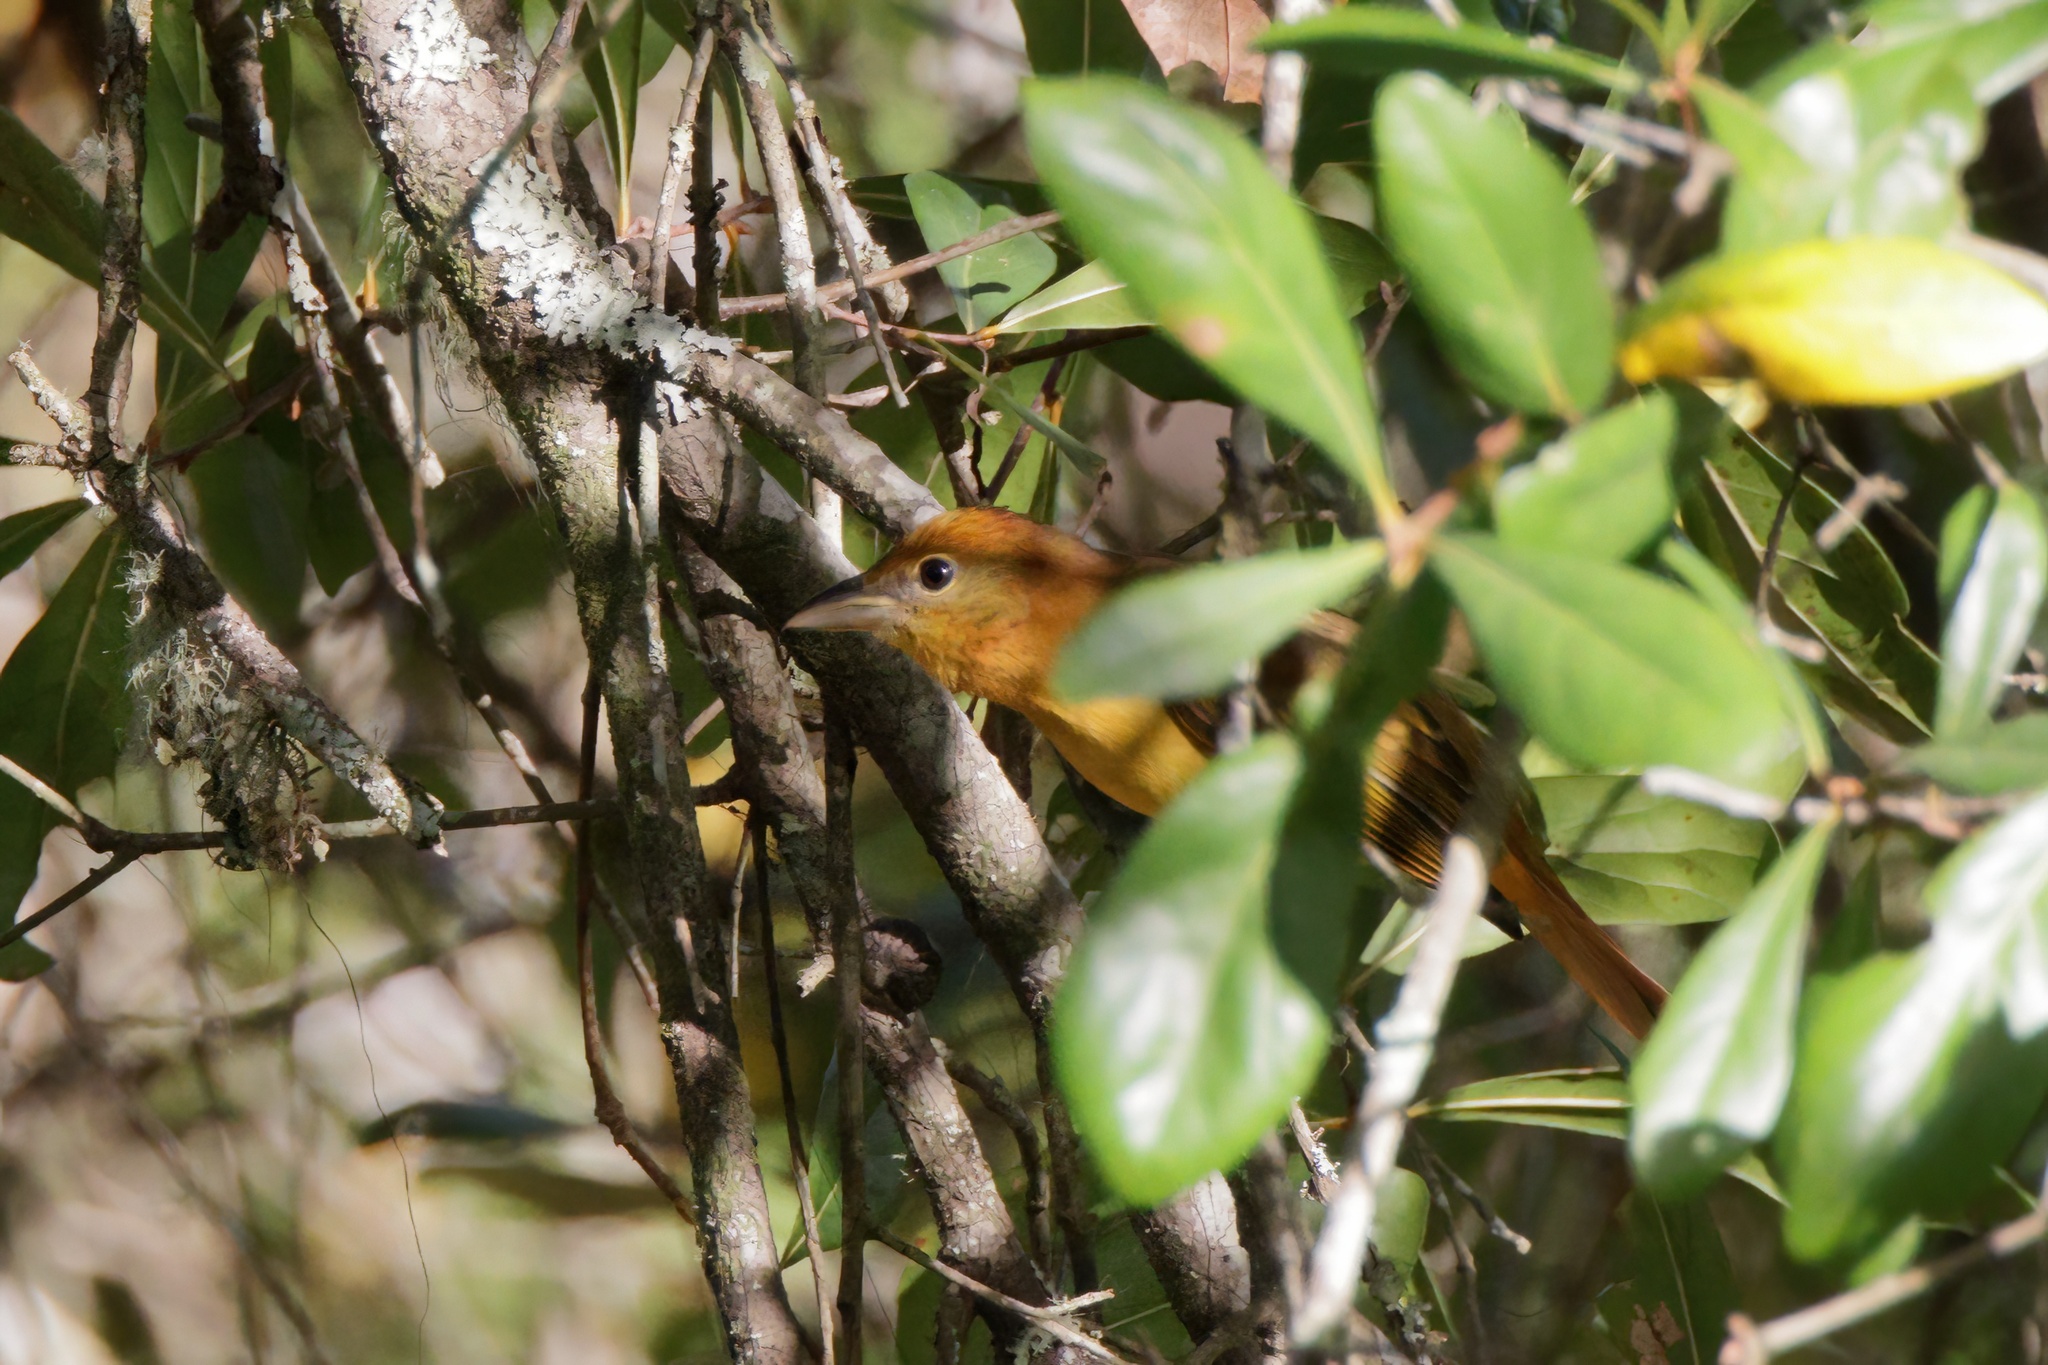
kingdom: Animalia
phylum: Chordata
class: Aves
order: Passeriformes
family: Cardinalidae
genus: Piranga
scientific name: Piranga rubra
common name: Summer tanager
